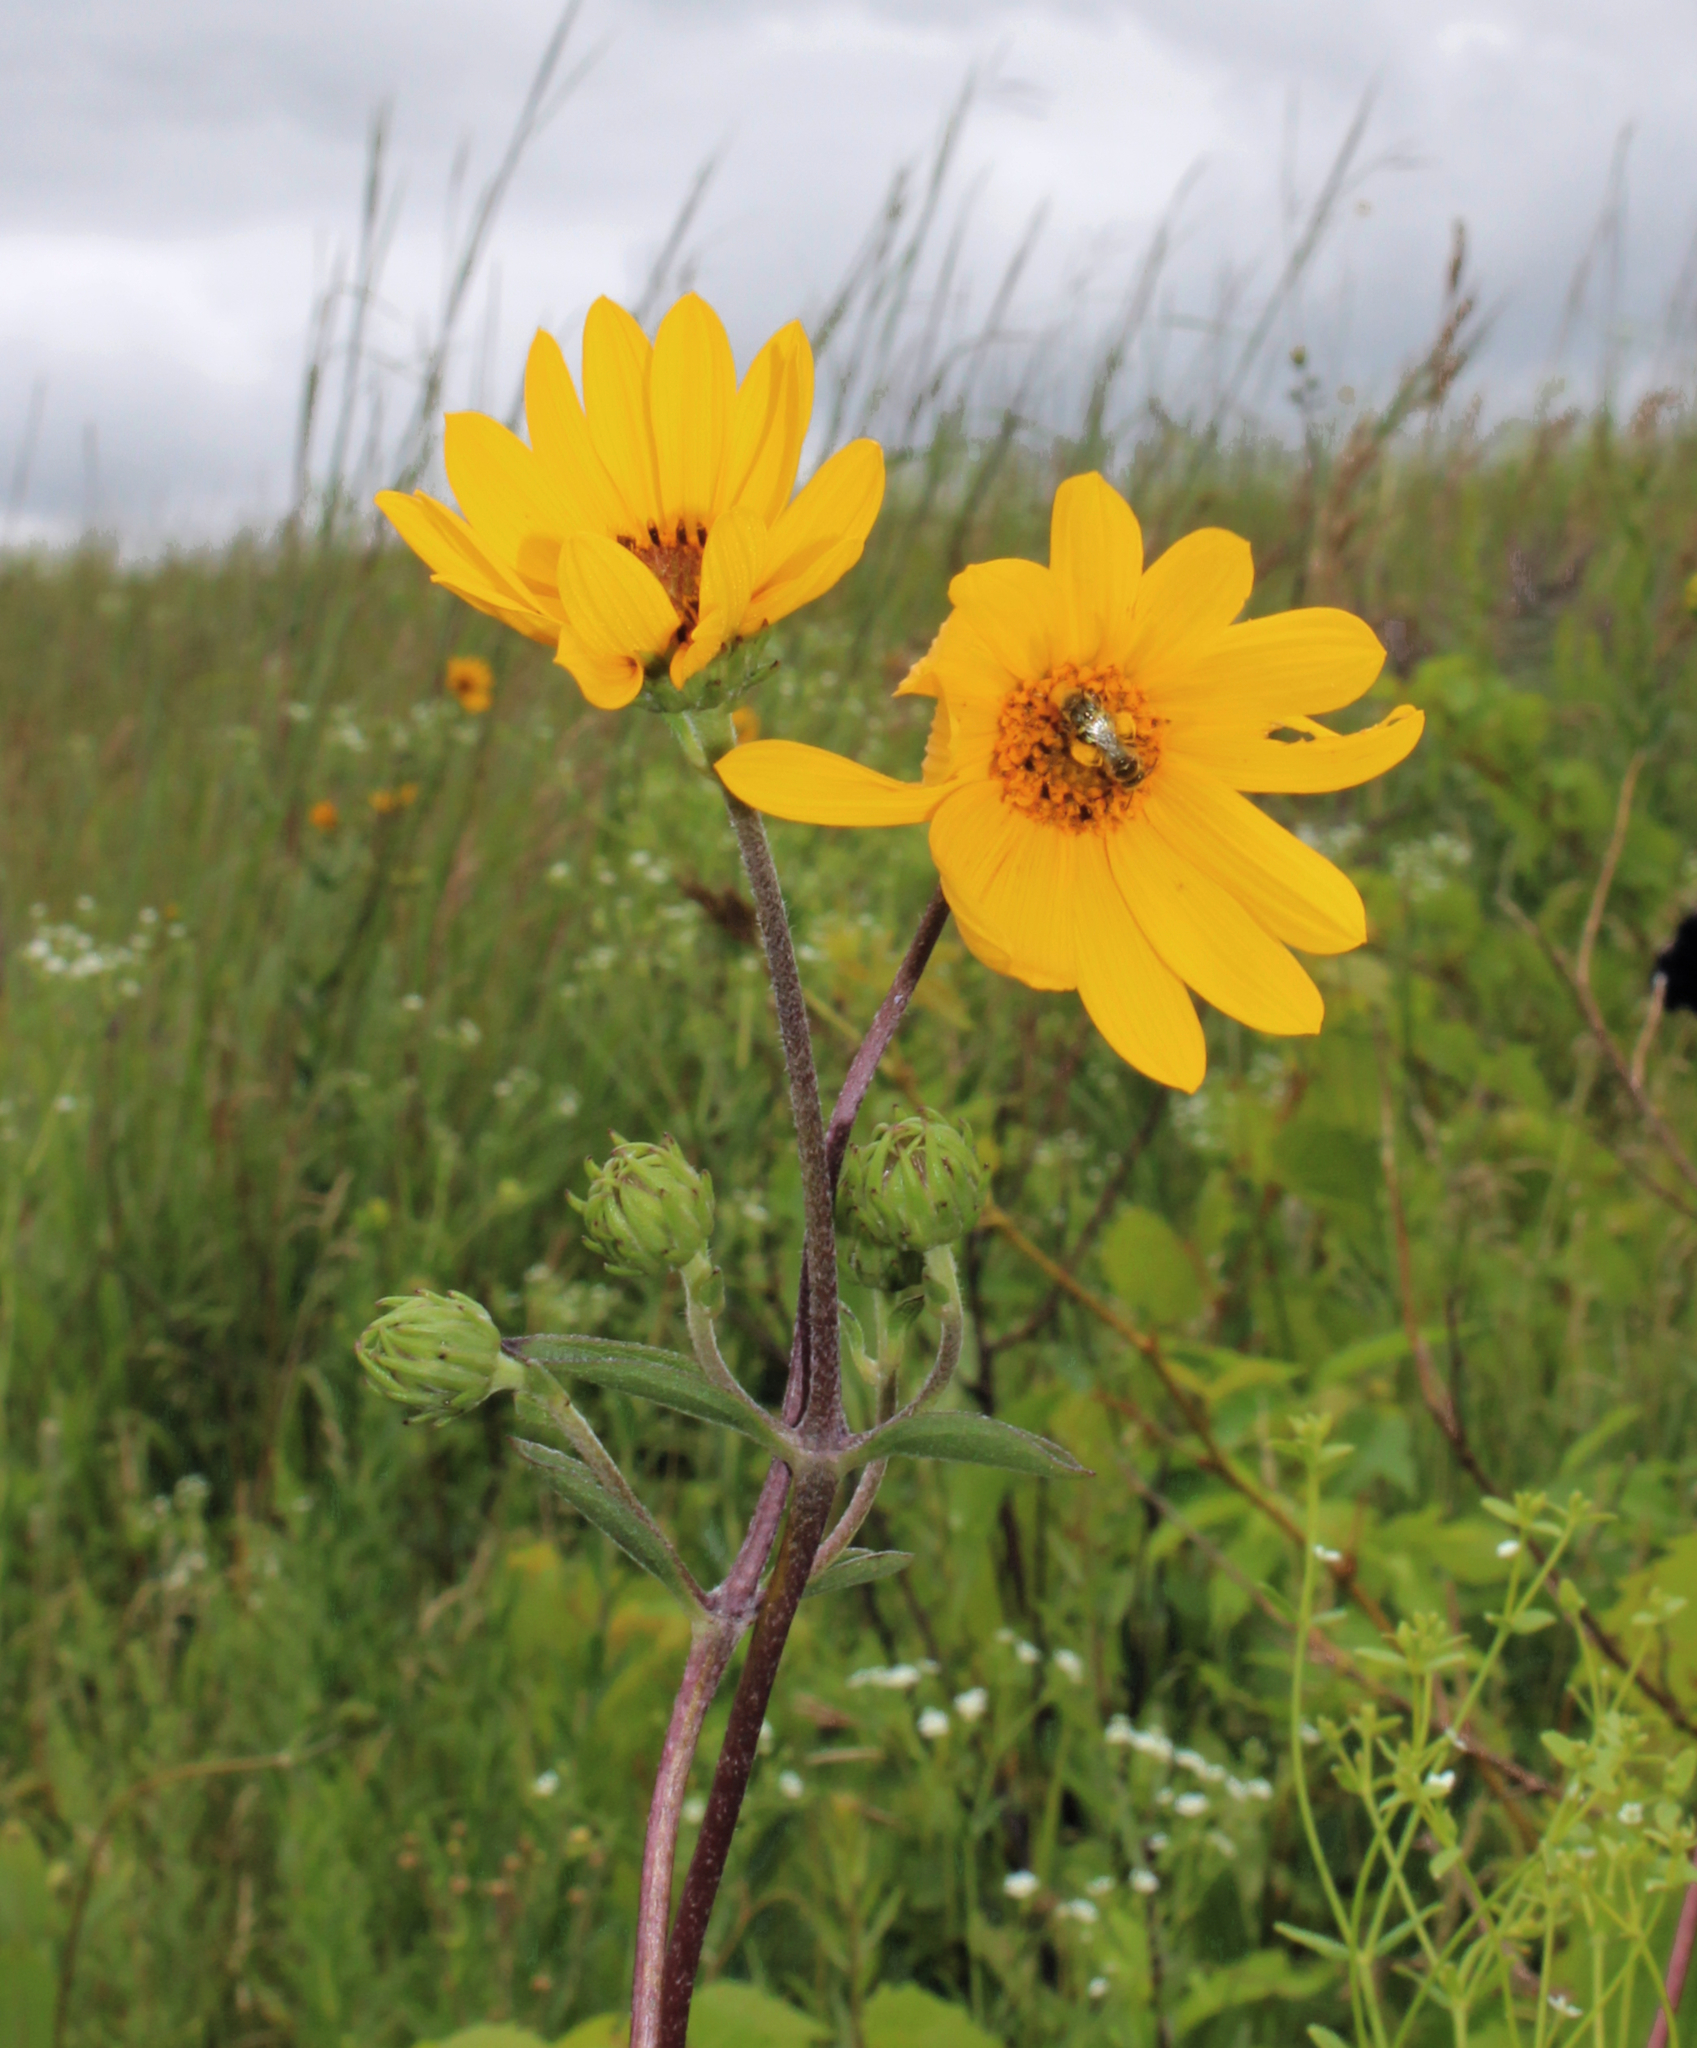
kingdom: Plantae
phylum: Tracheophyta
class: Magnoliopsida
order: Asterales
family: Asteraceae
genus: Helianthus
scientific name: Helianthus occidentalis
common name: Western sunflower
